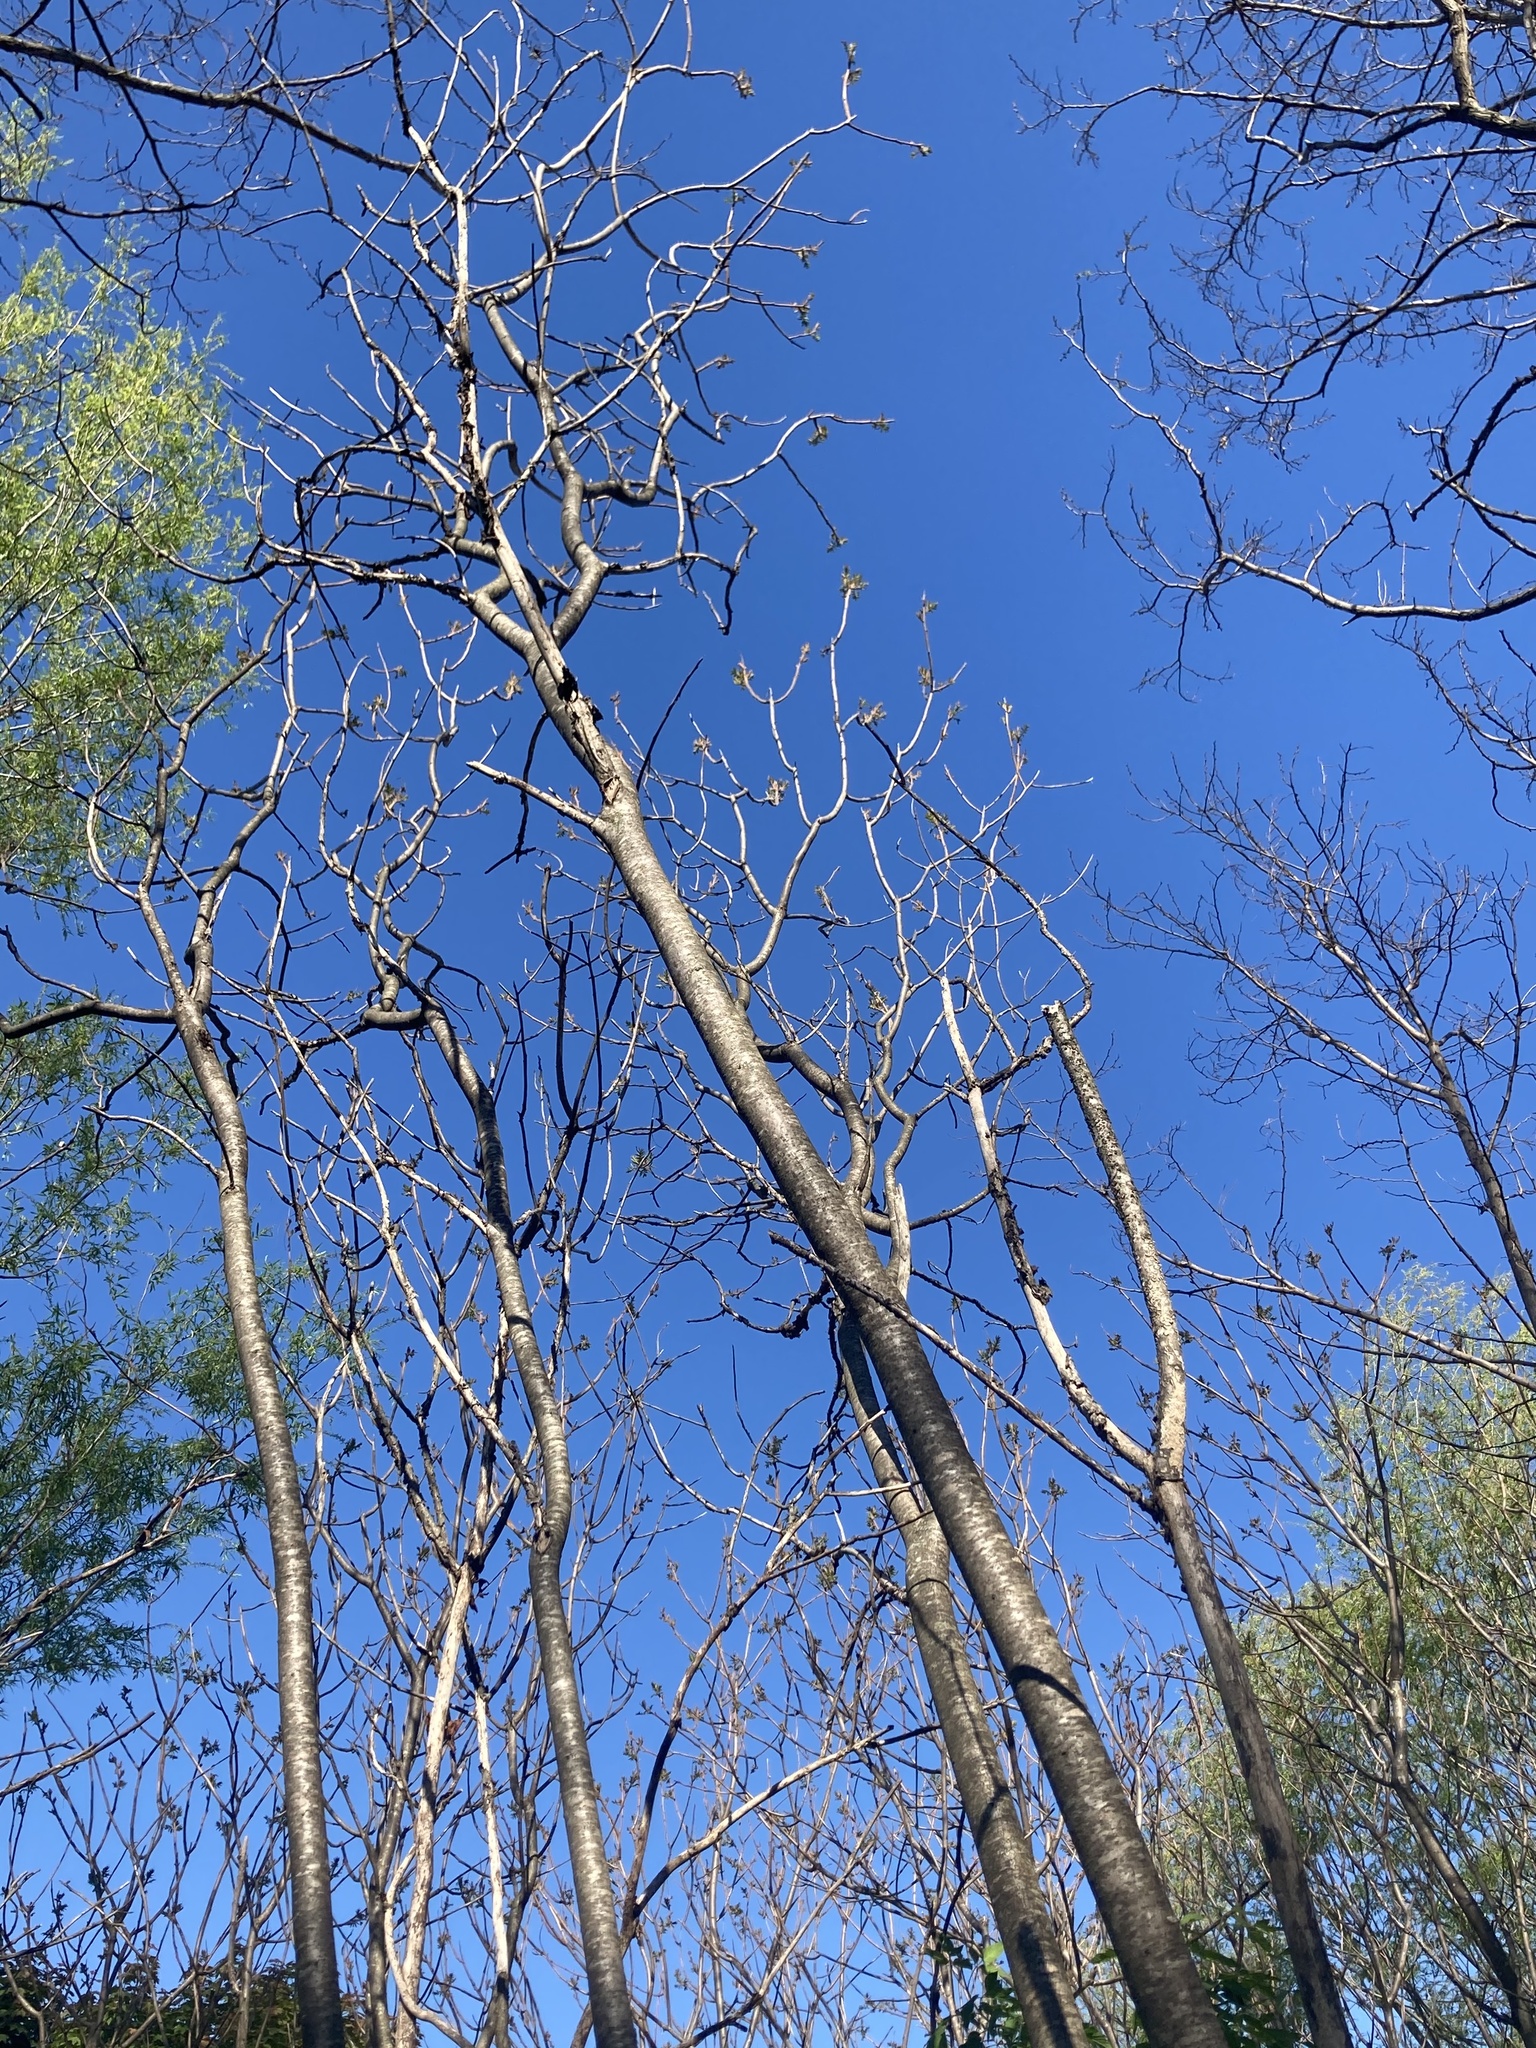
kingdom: Plantae
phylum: Tracheophyta
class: Magnoliopsida
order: Sapindales
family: Anacardiaceae
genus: Rhus
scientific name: Rhus typhina
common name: Staghorn sumac
